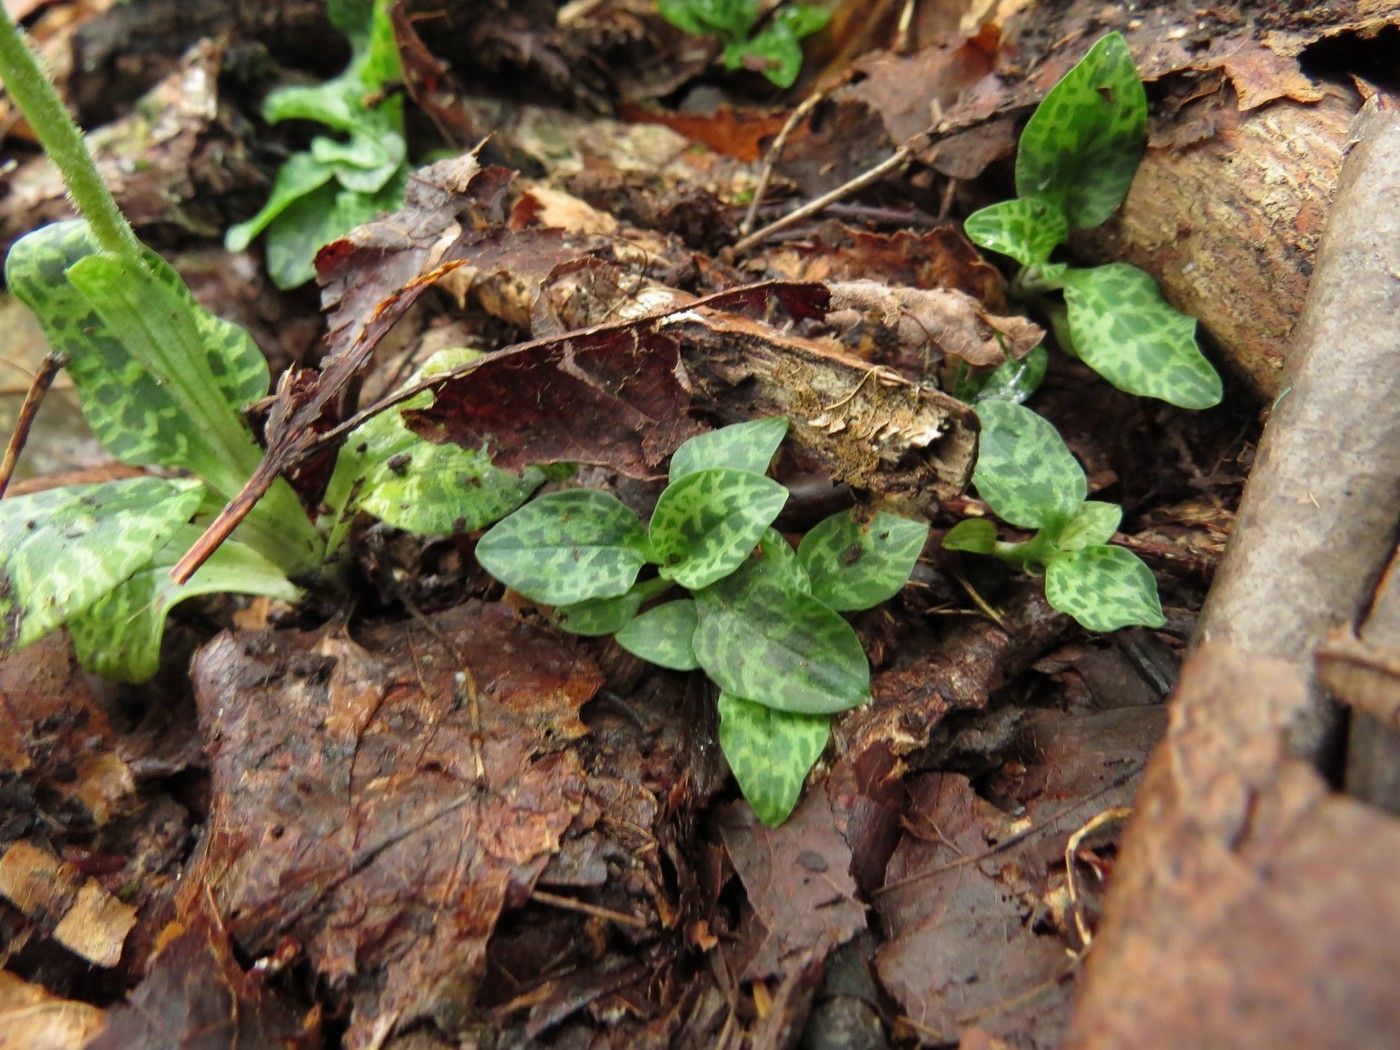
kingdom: Plantae
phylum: Tracheophyta
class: Liliopsida
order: Asparagales
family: Orchidaceae
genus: Goodyera
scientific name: Goodyera repens
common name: Creeping lady's-tresses
